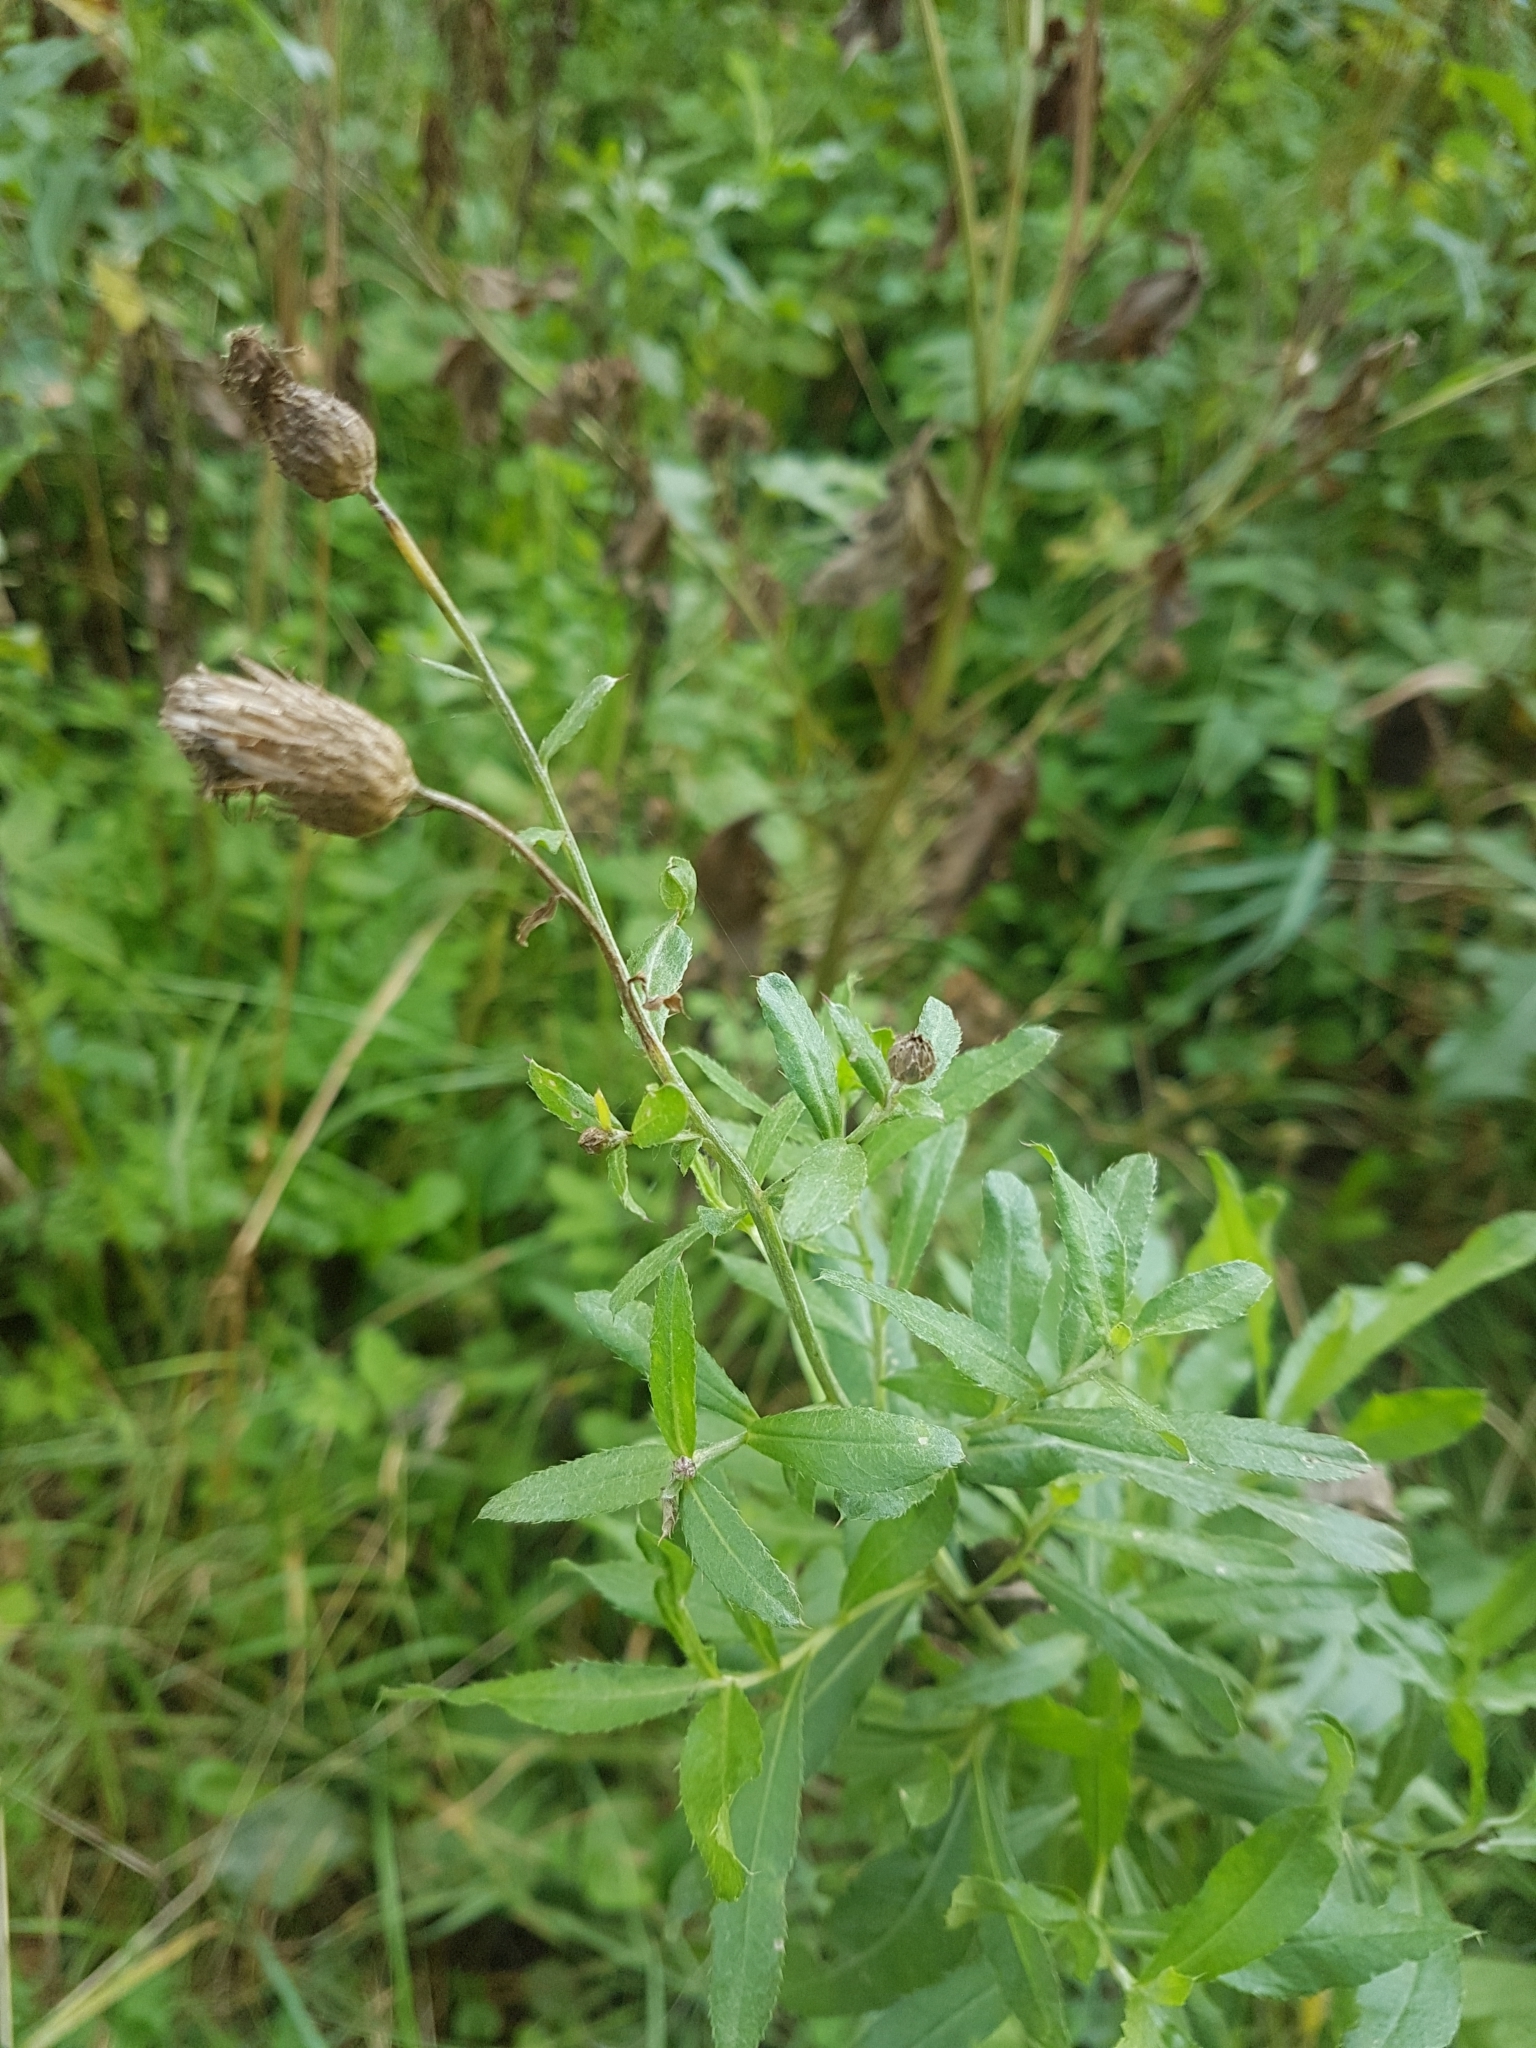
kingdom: Plantae
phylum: Tracheophyta
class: Magnoliopsida
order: Asterales
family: Asteraceae
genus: Cirsium
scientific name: Cirsium arvense
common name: Creeping thistle
